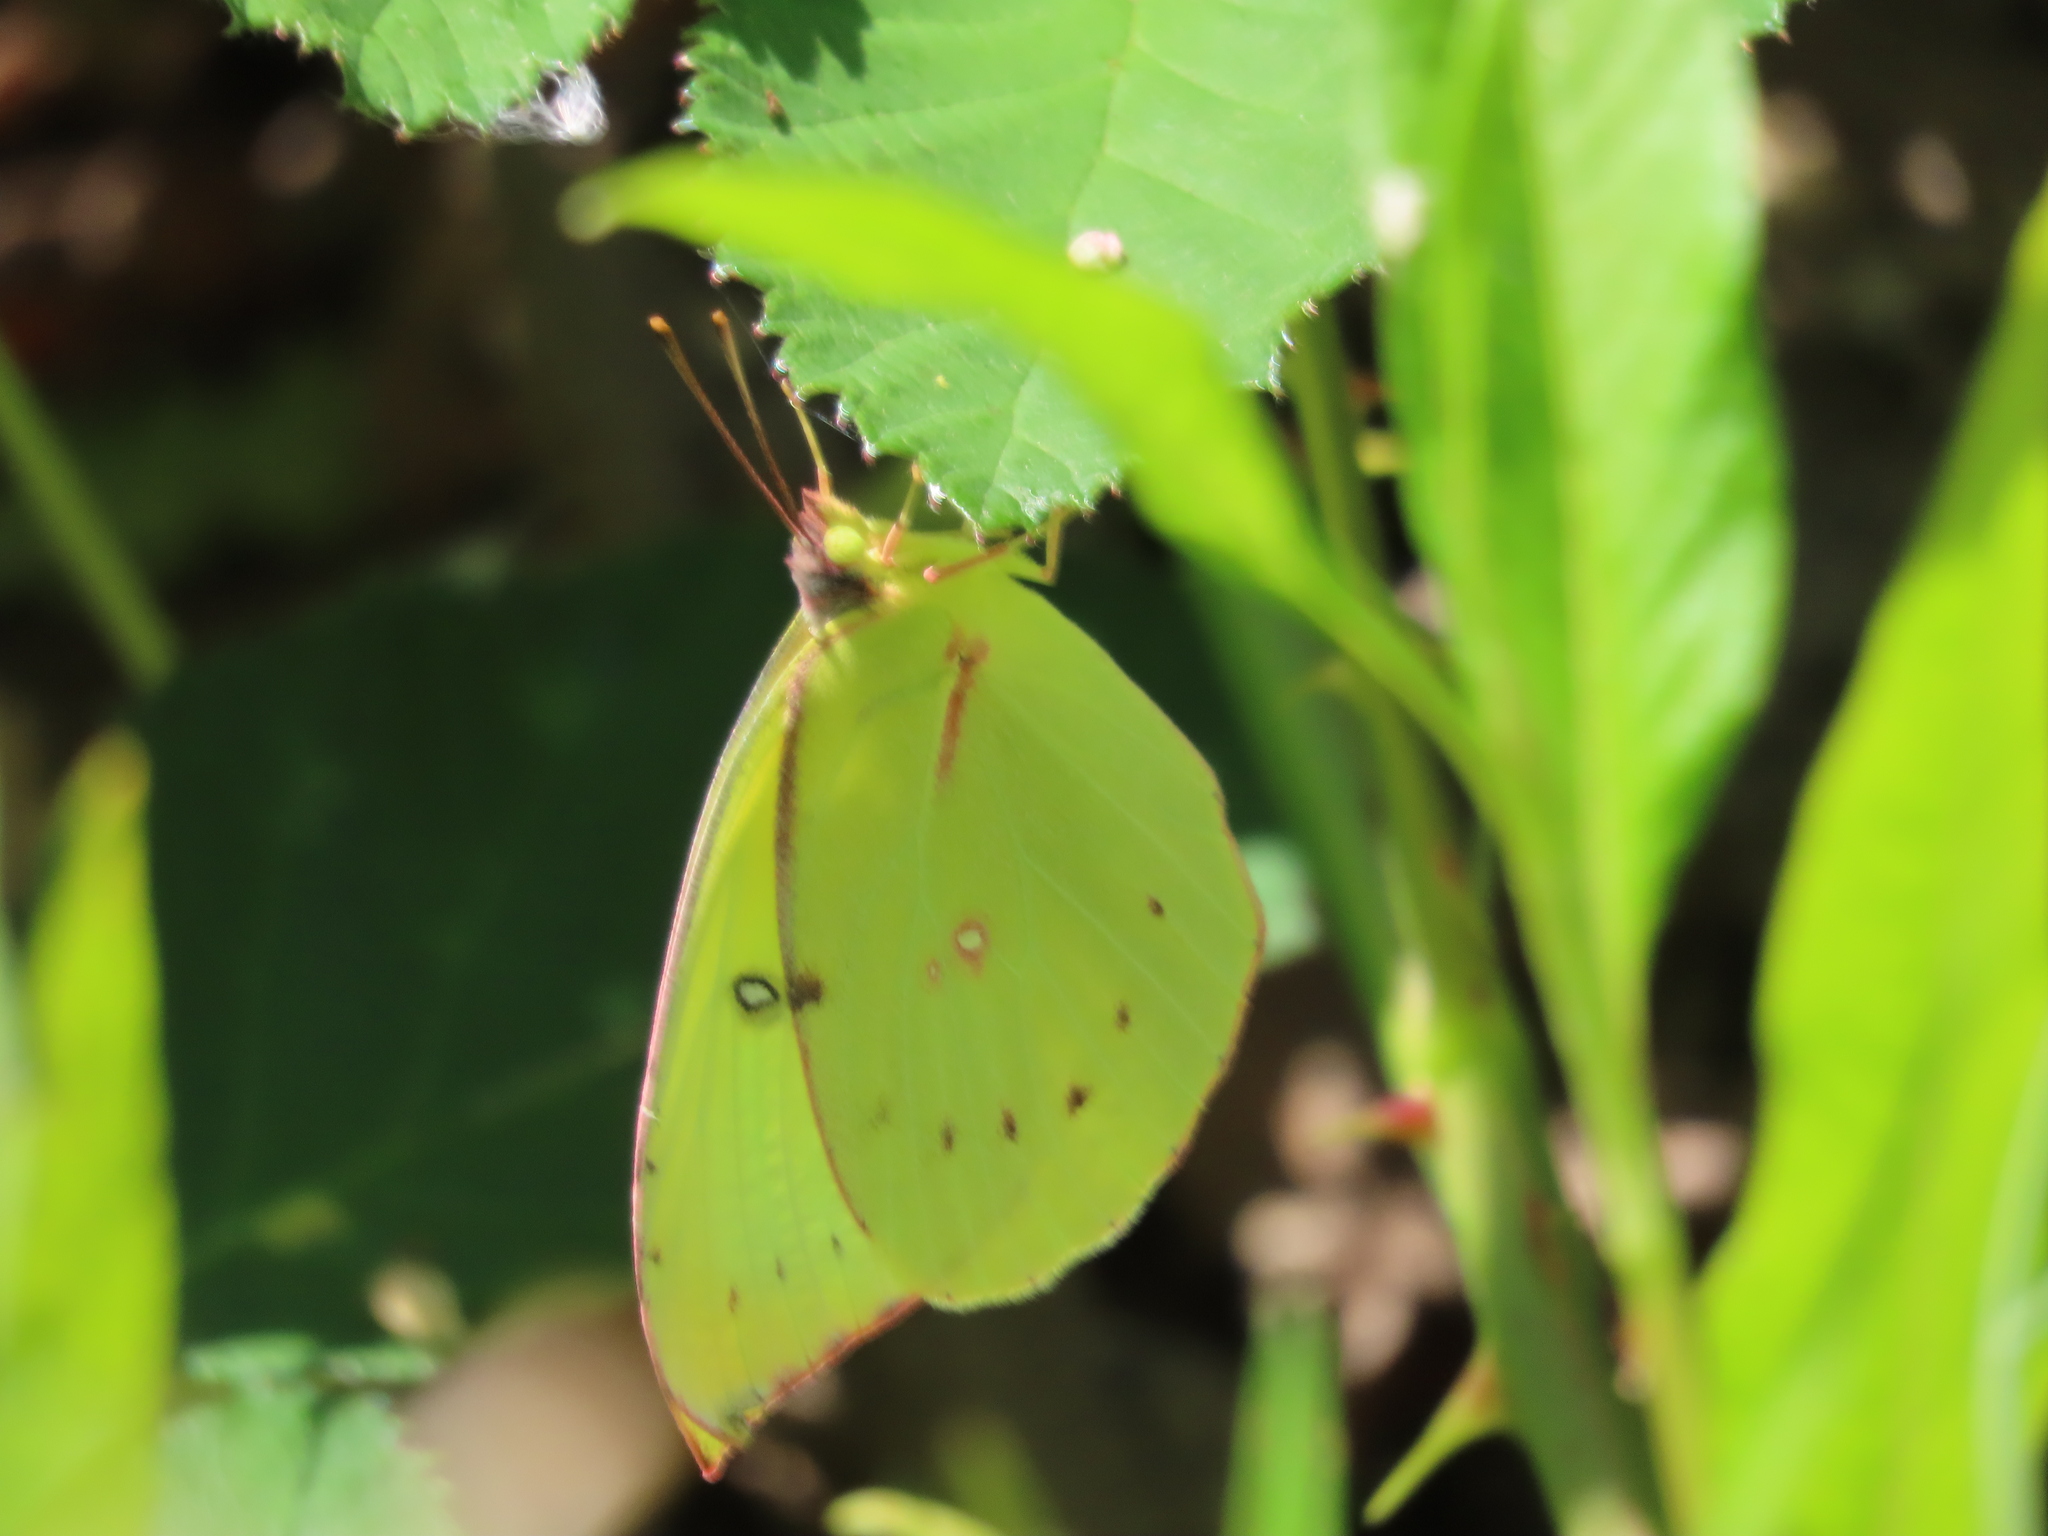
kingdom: Animalia
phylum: Arthropoda
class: Insecta
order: Lepidoptera
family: Pieridae
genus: Zerene
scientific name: Zerene eurydice
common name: California dogface
